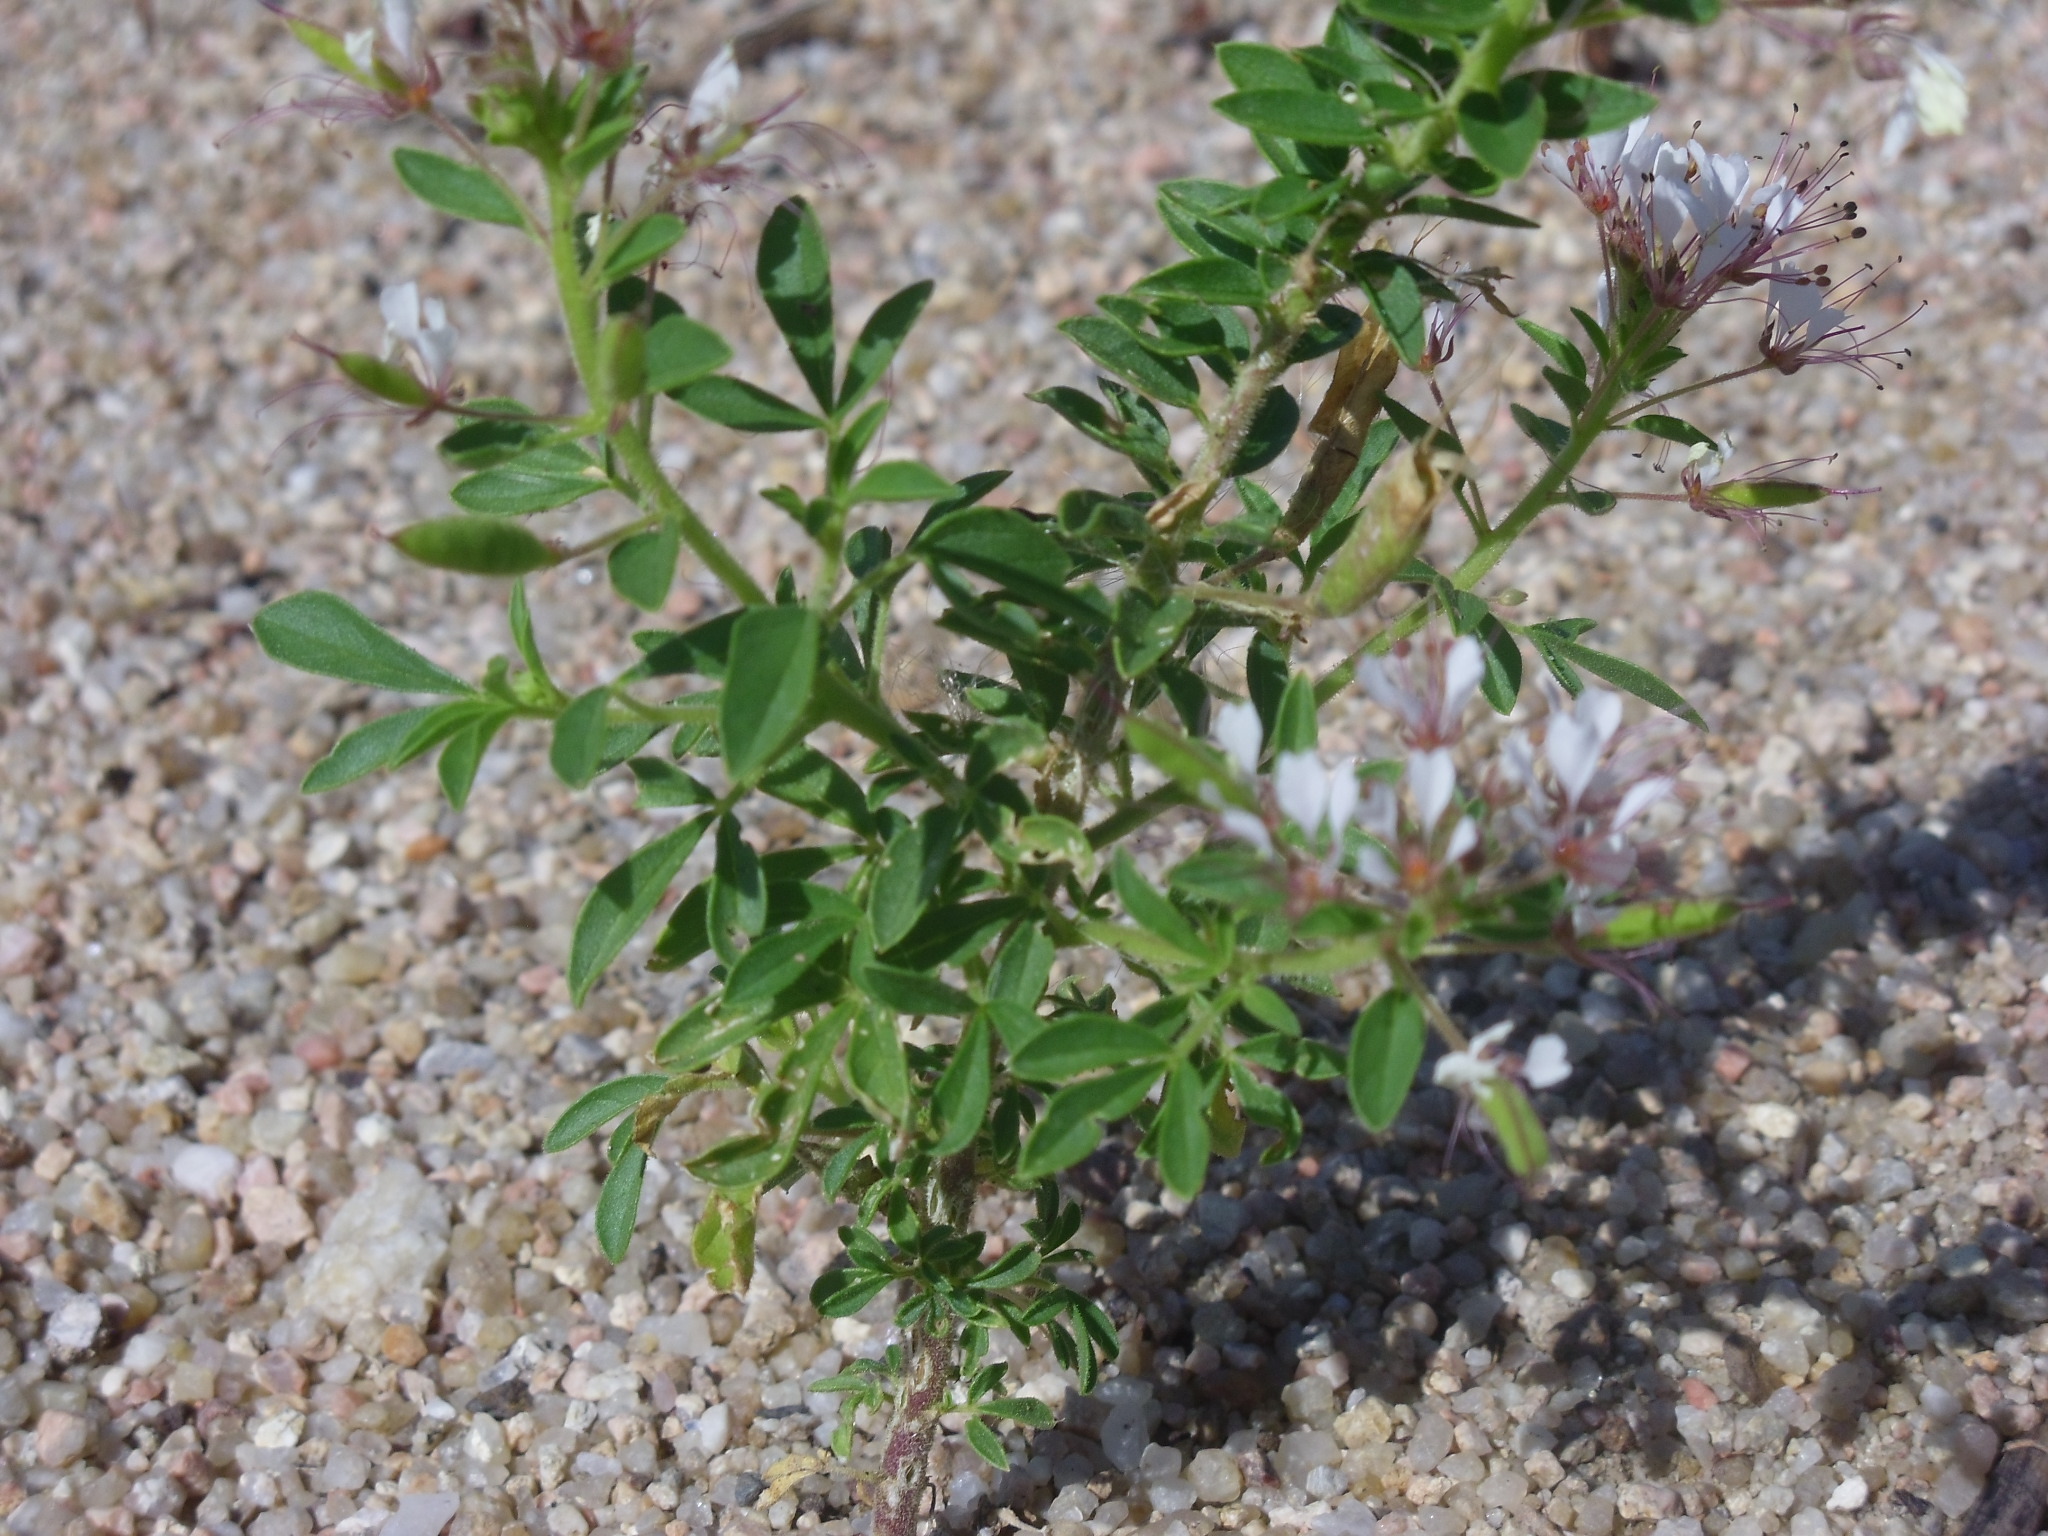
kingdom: Plantae
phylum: Tracheophyta
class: Magnoliopsida
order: Brassicales
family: Cleomaceae
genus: Polanisia
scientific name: Polanisia dodecandra
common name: Clammyweed
